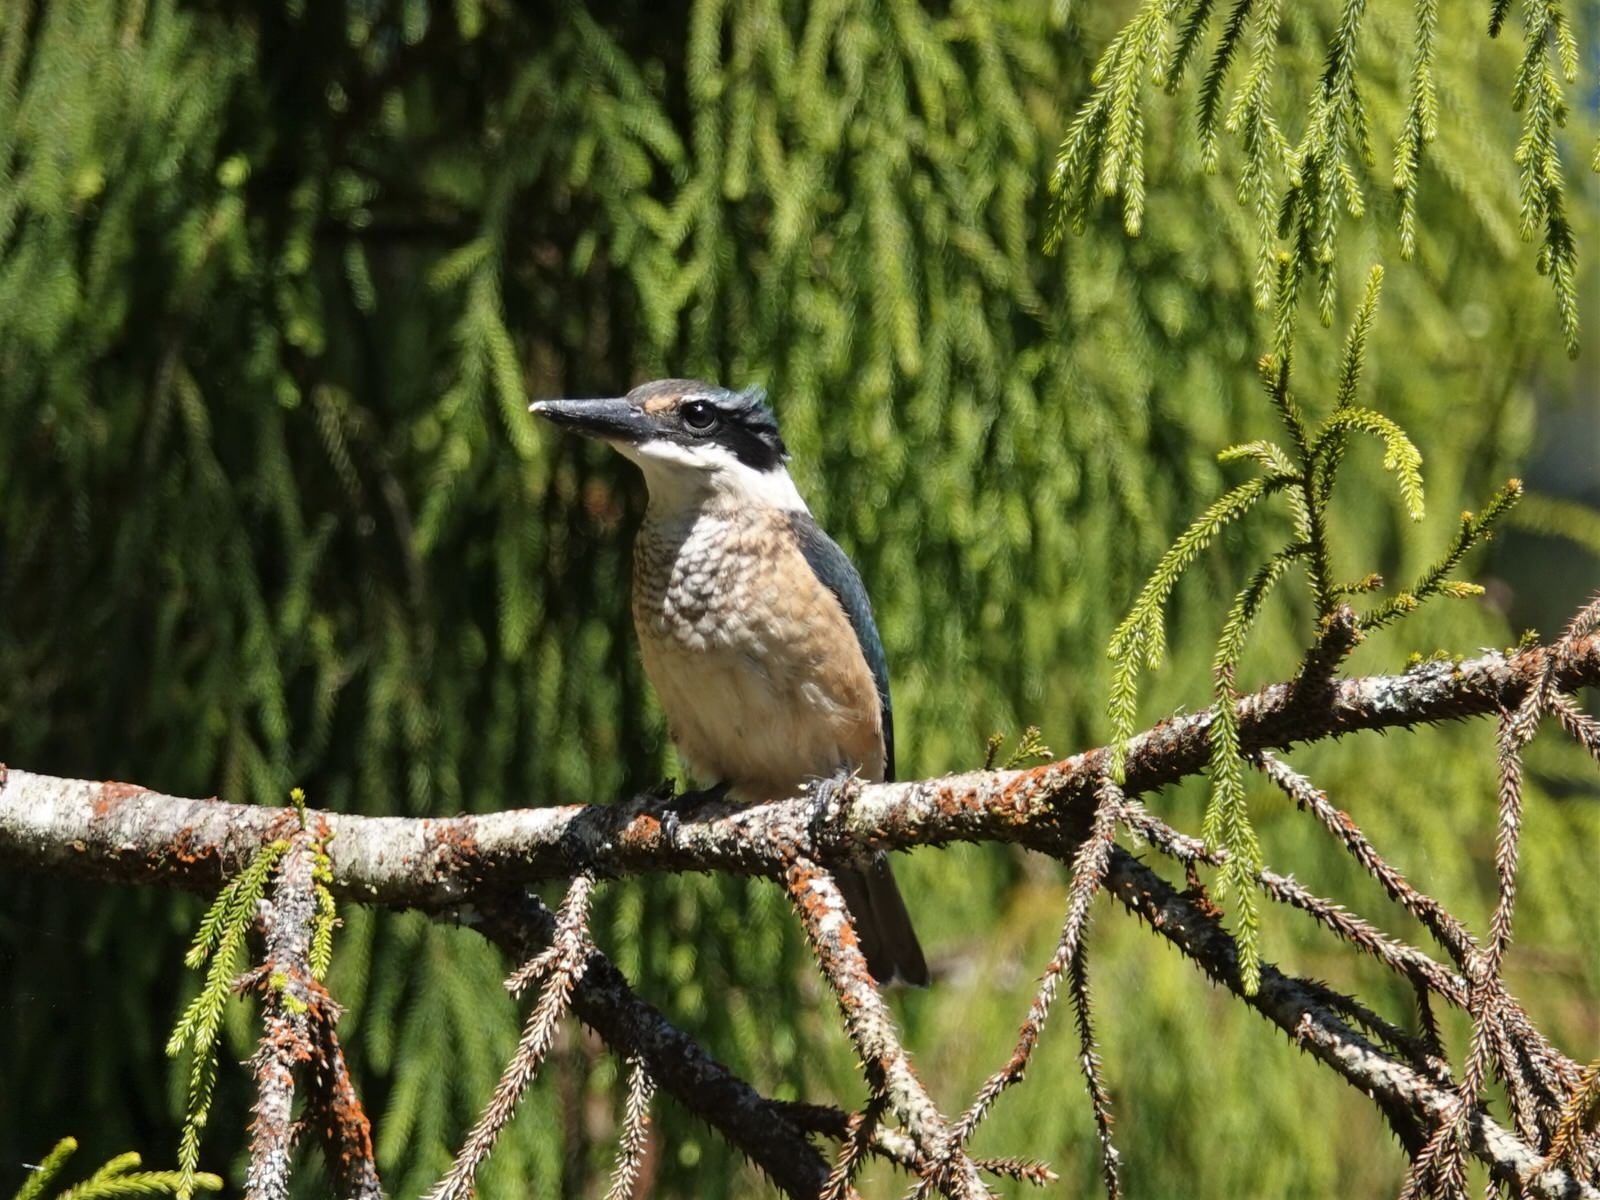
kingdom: Animalia
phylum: Chordata
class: Aves
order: Coraciiformes
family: Alcedinidae
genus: Todiramphus
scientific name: Todiramphus sanctus
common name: Sacred kingfisher
